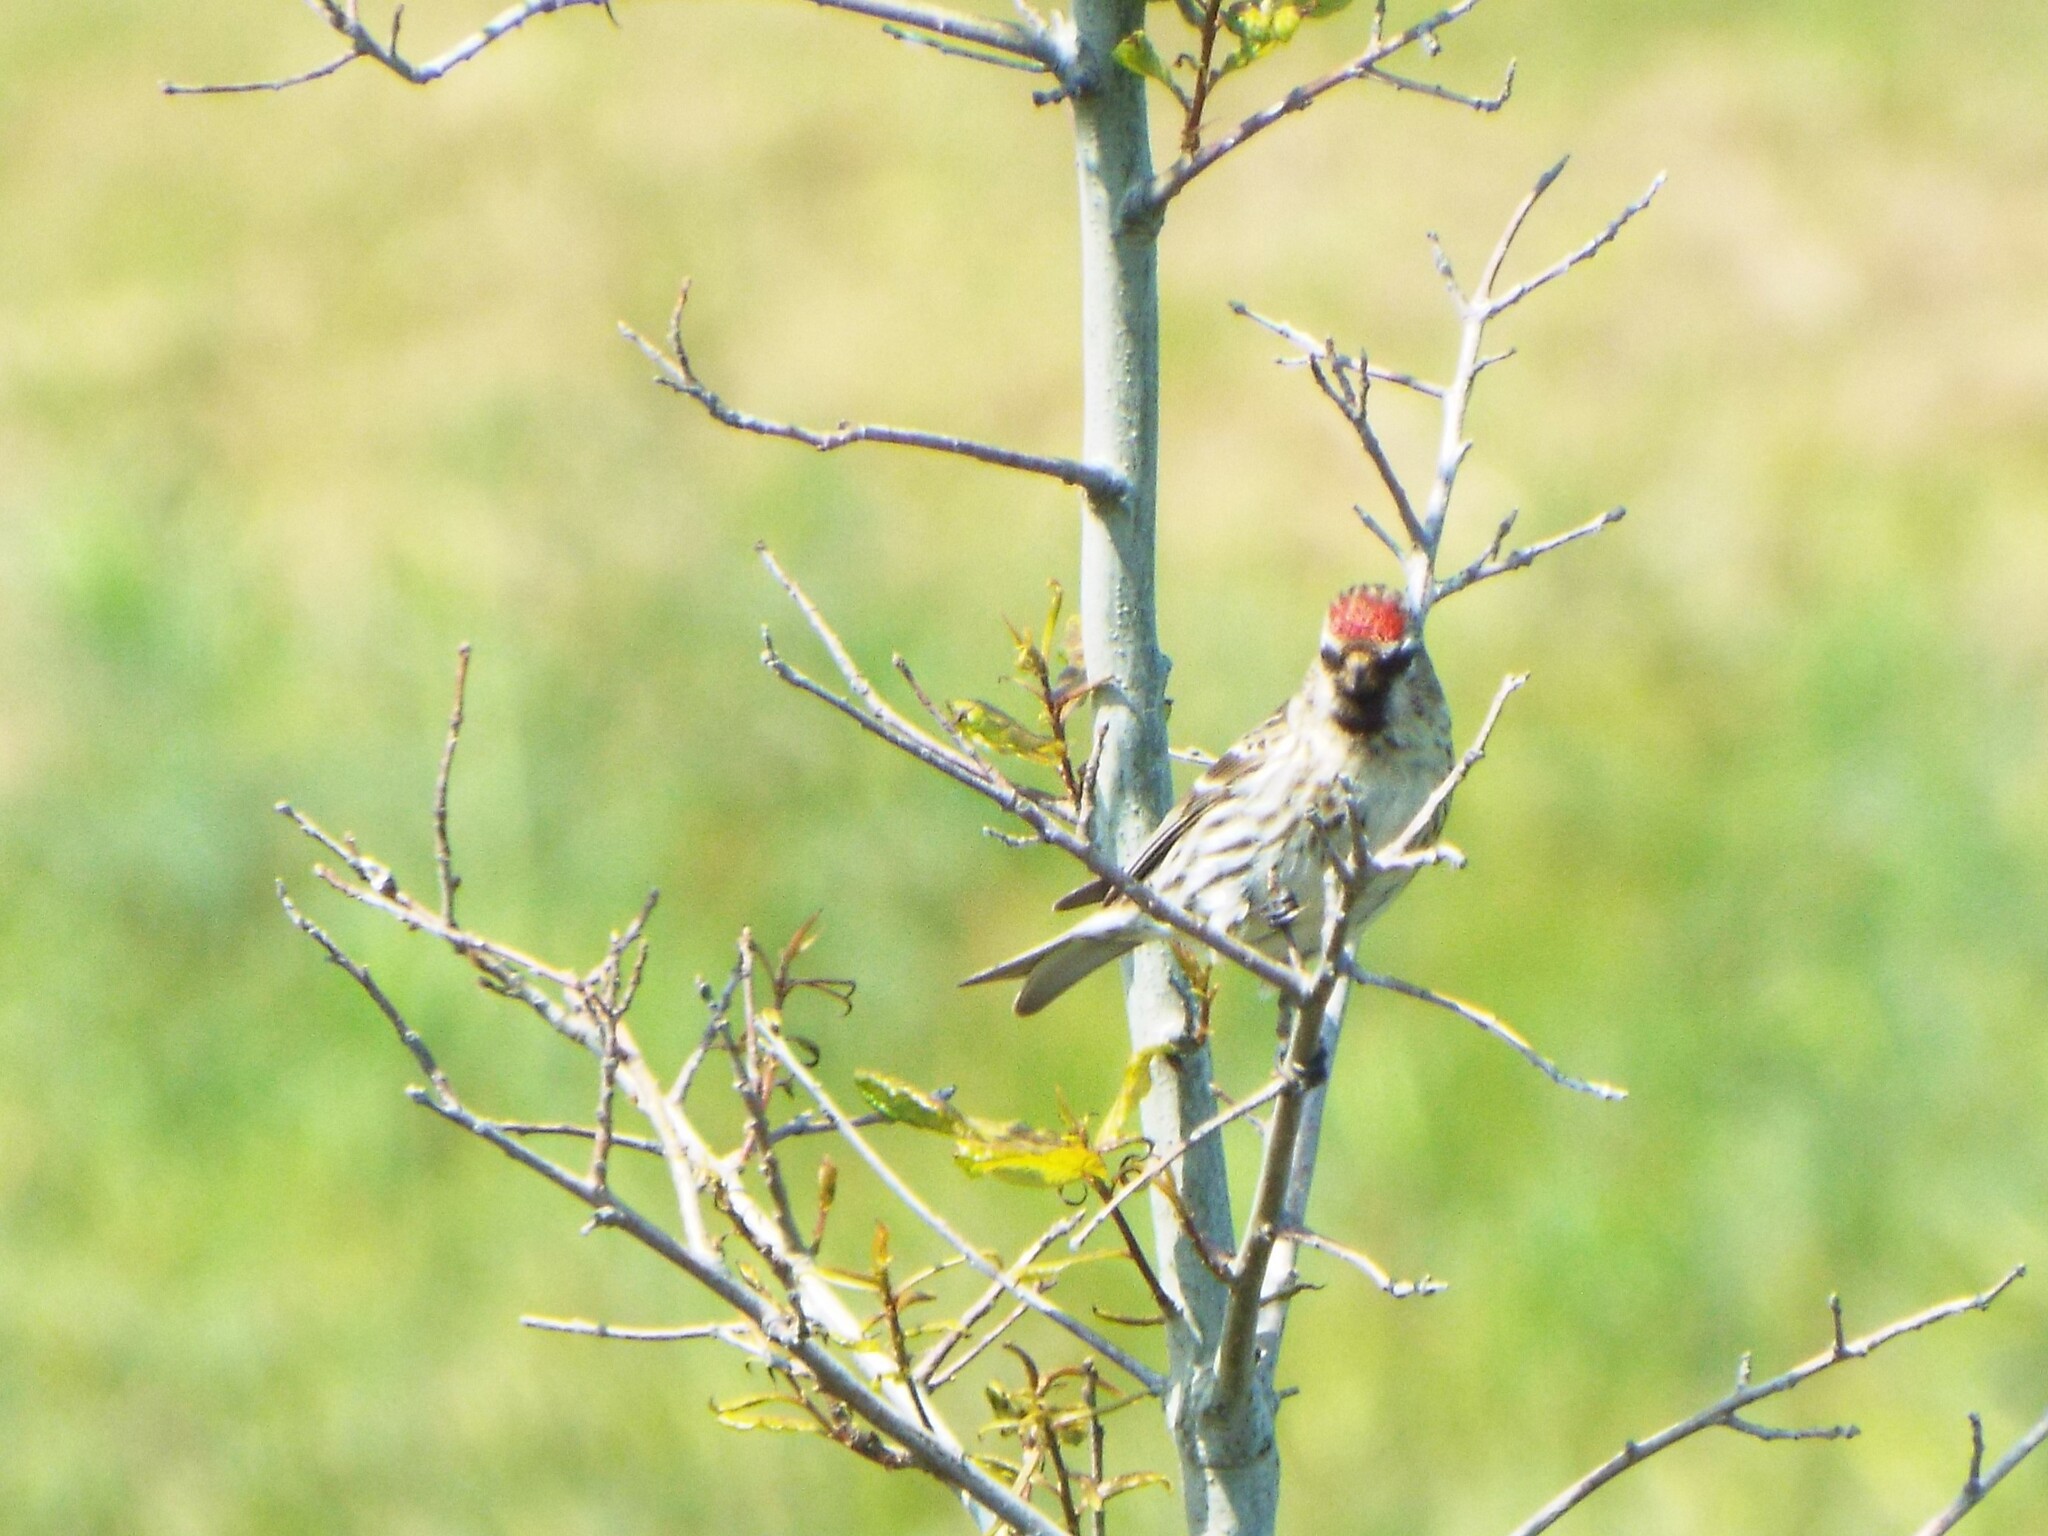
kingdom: Animalia
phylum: Chordata
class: Aves
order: Passeriformes
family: Fringillidae
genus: Acanthis
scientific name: Acanthis flammea
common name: Common redpoll
